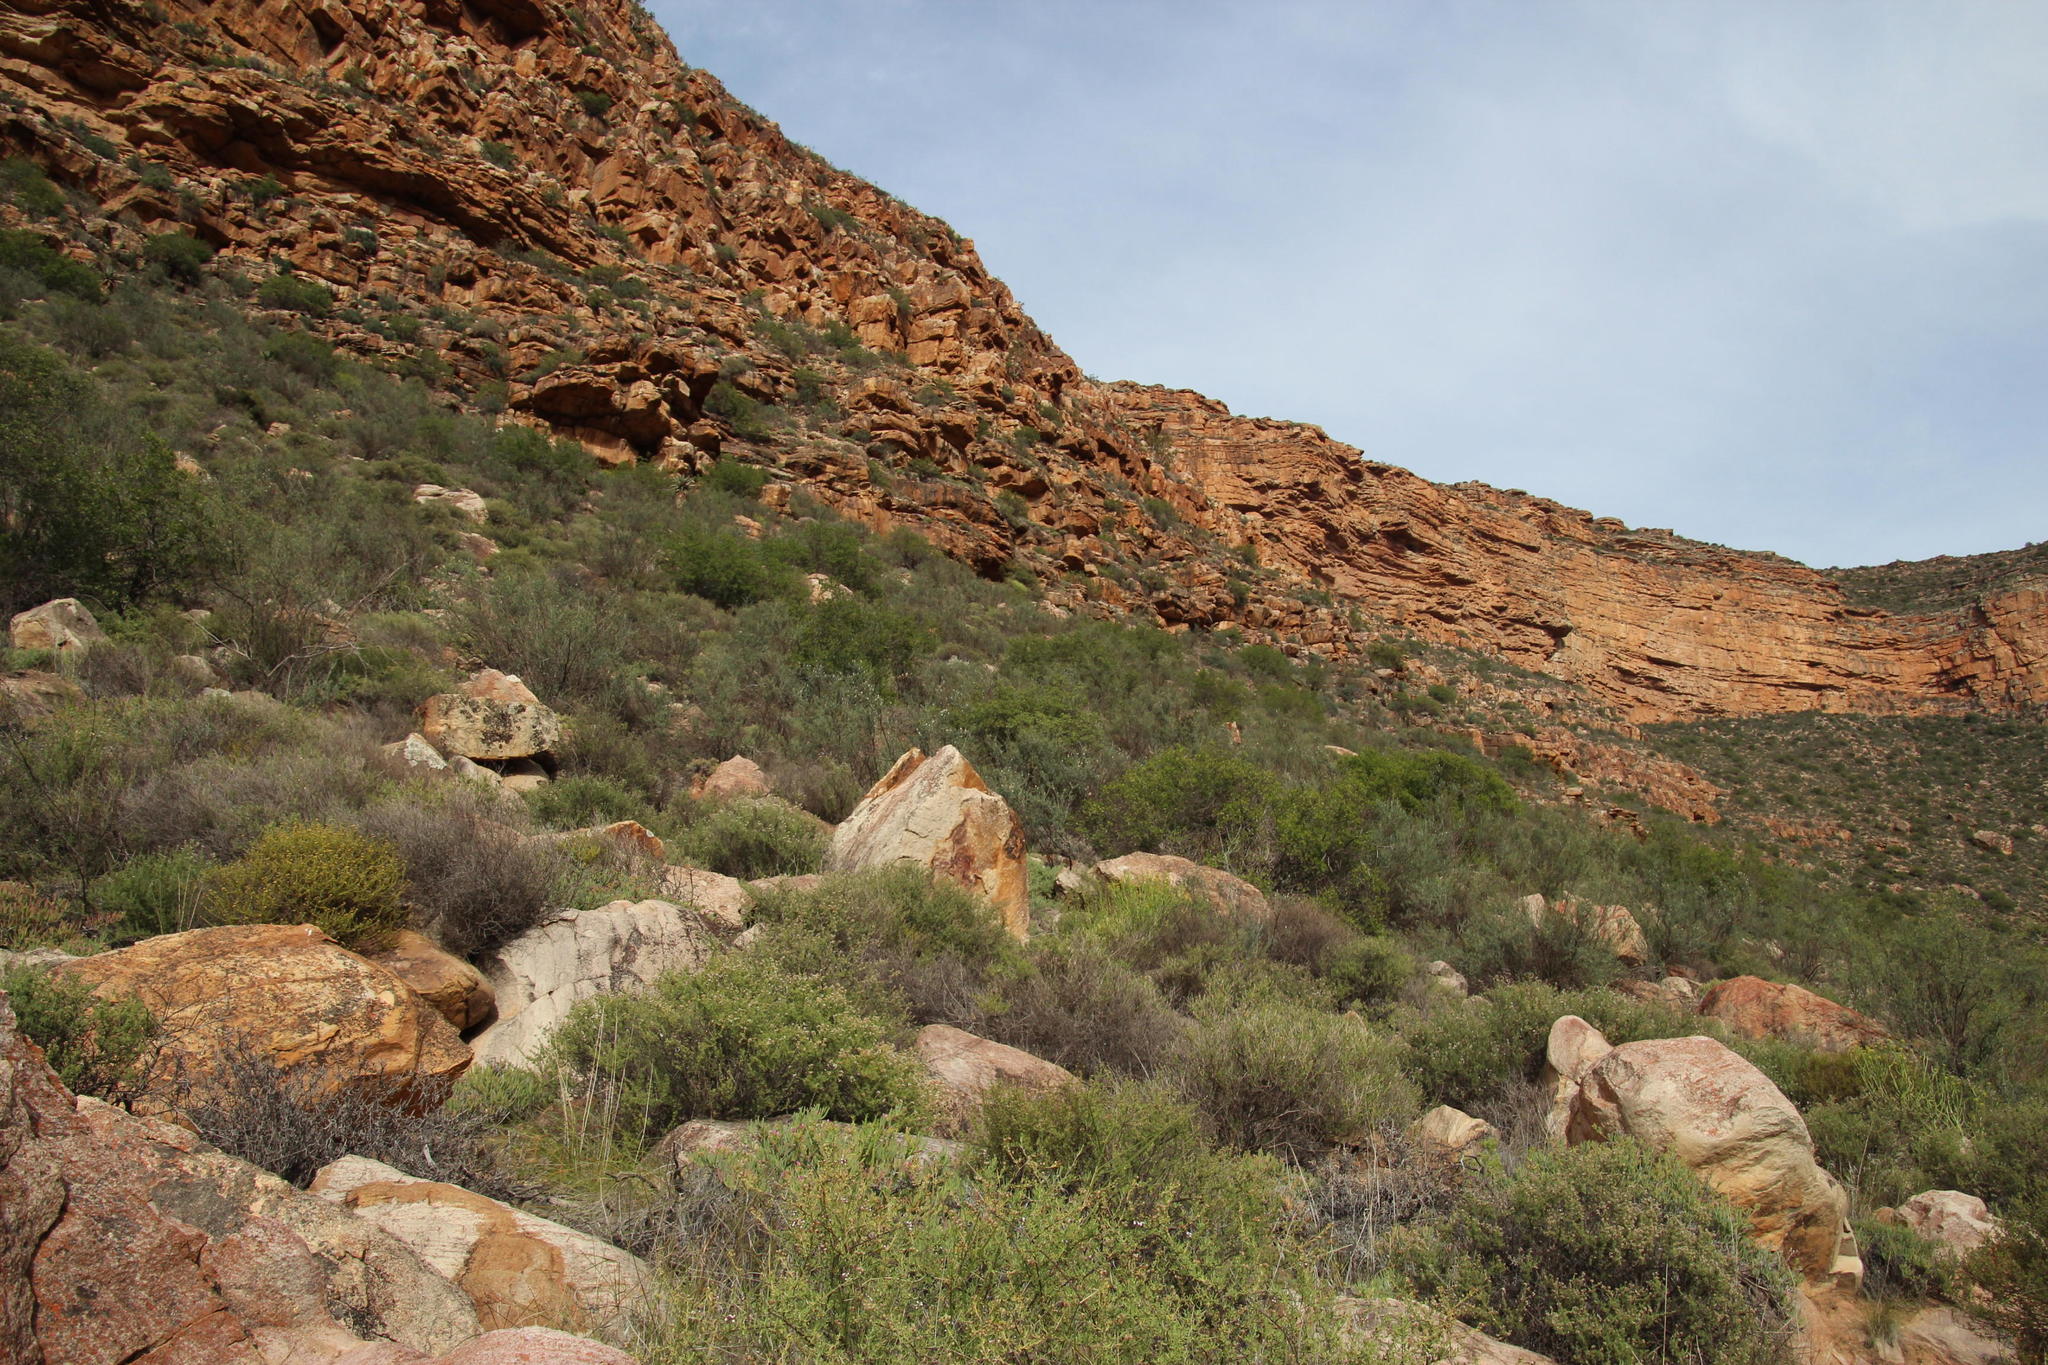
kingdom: Plantae
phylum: Tracheophyta
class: Magnoliopsida
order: Ericales
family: Ebenaceae
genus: Euclea
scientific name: Euclea linearis
